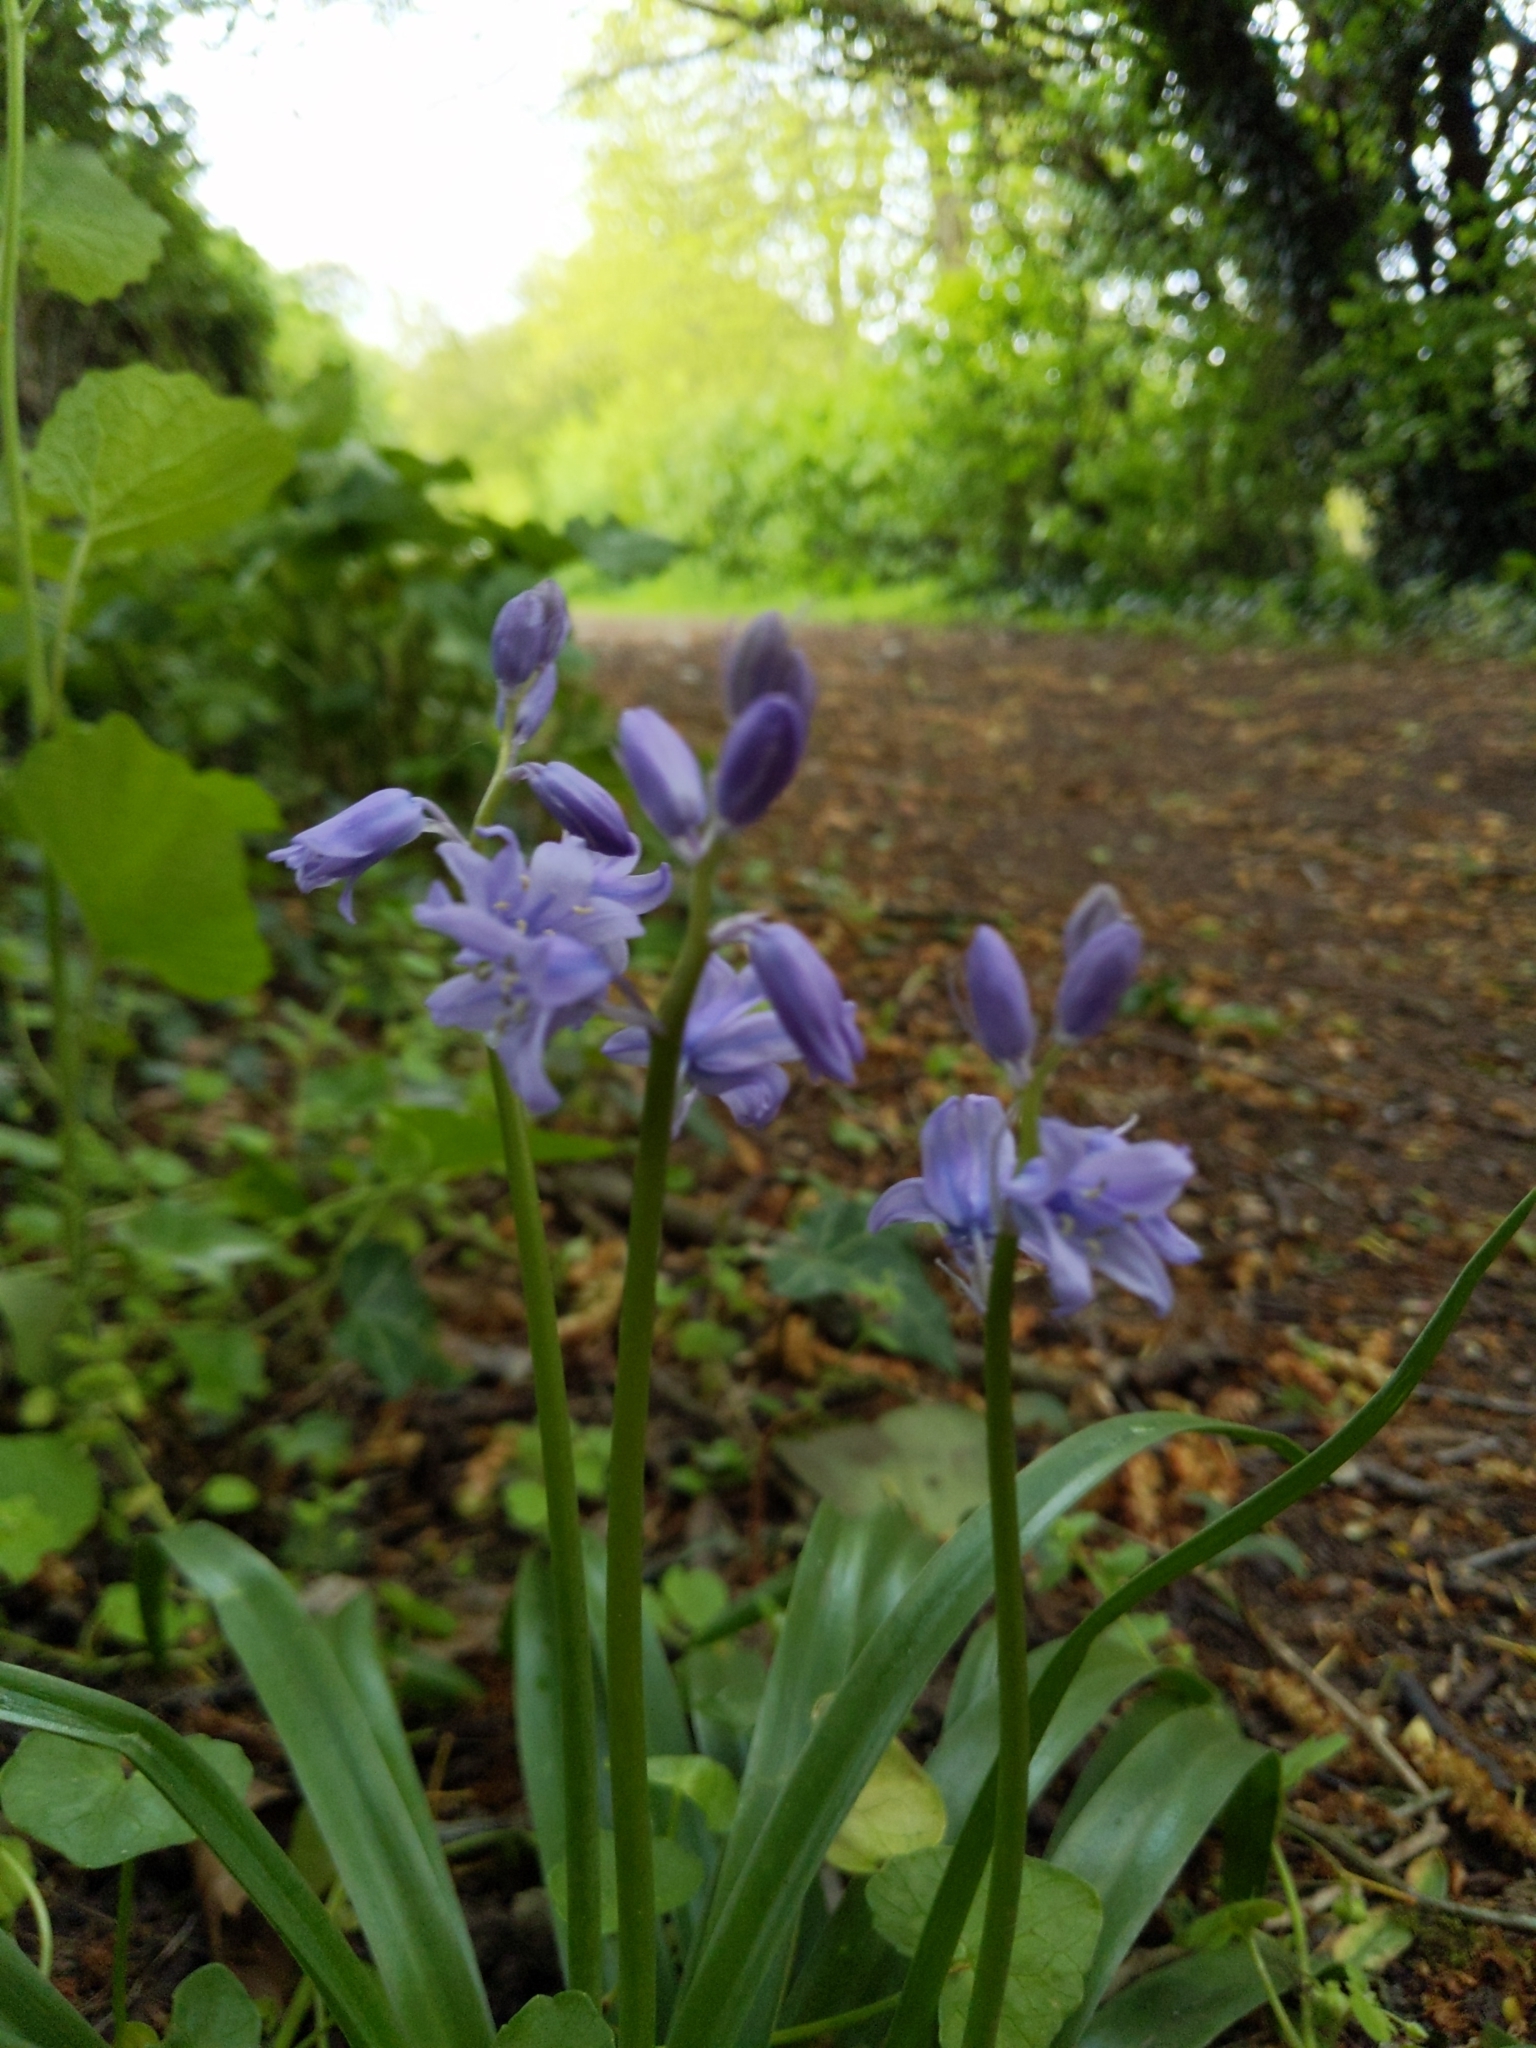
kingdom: Plantae
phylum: Tracheophyta
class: Liliopsida
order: Asparagales
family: Asparagaceae
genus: Hyacinthoides
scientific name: Hyacinthoides hispanica
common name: Spanish bluebell
